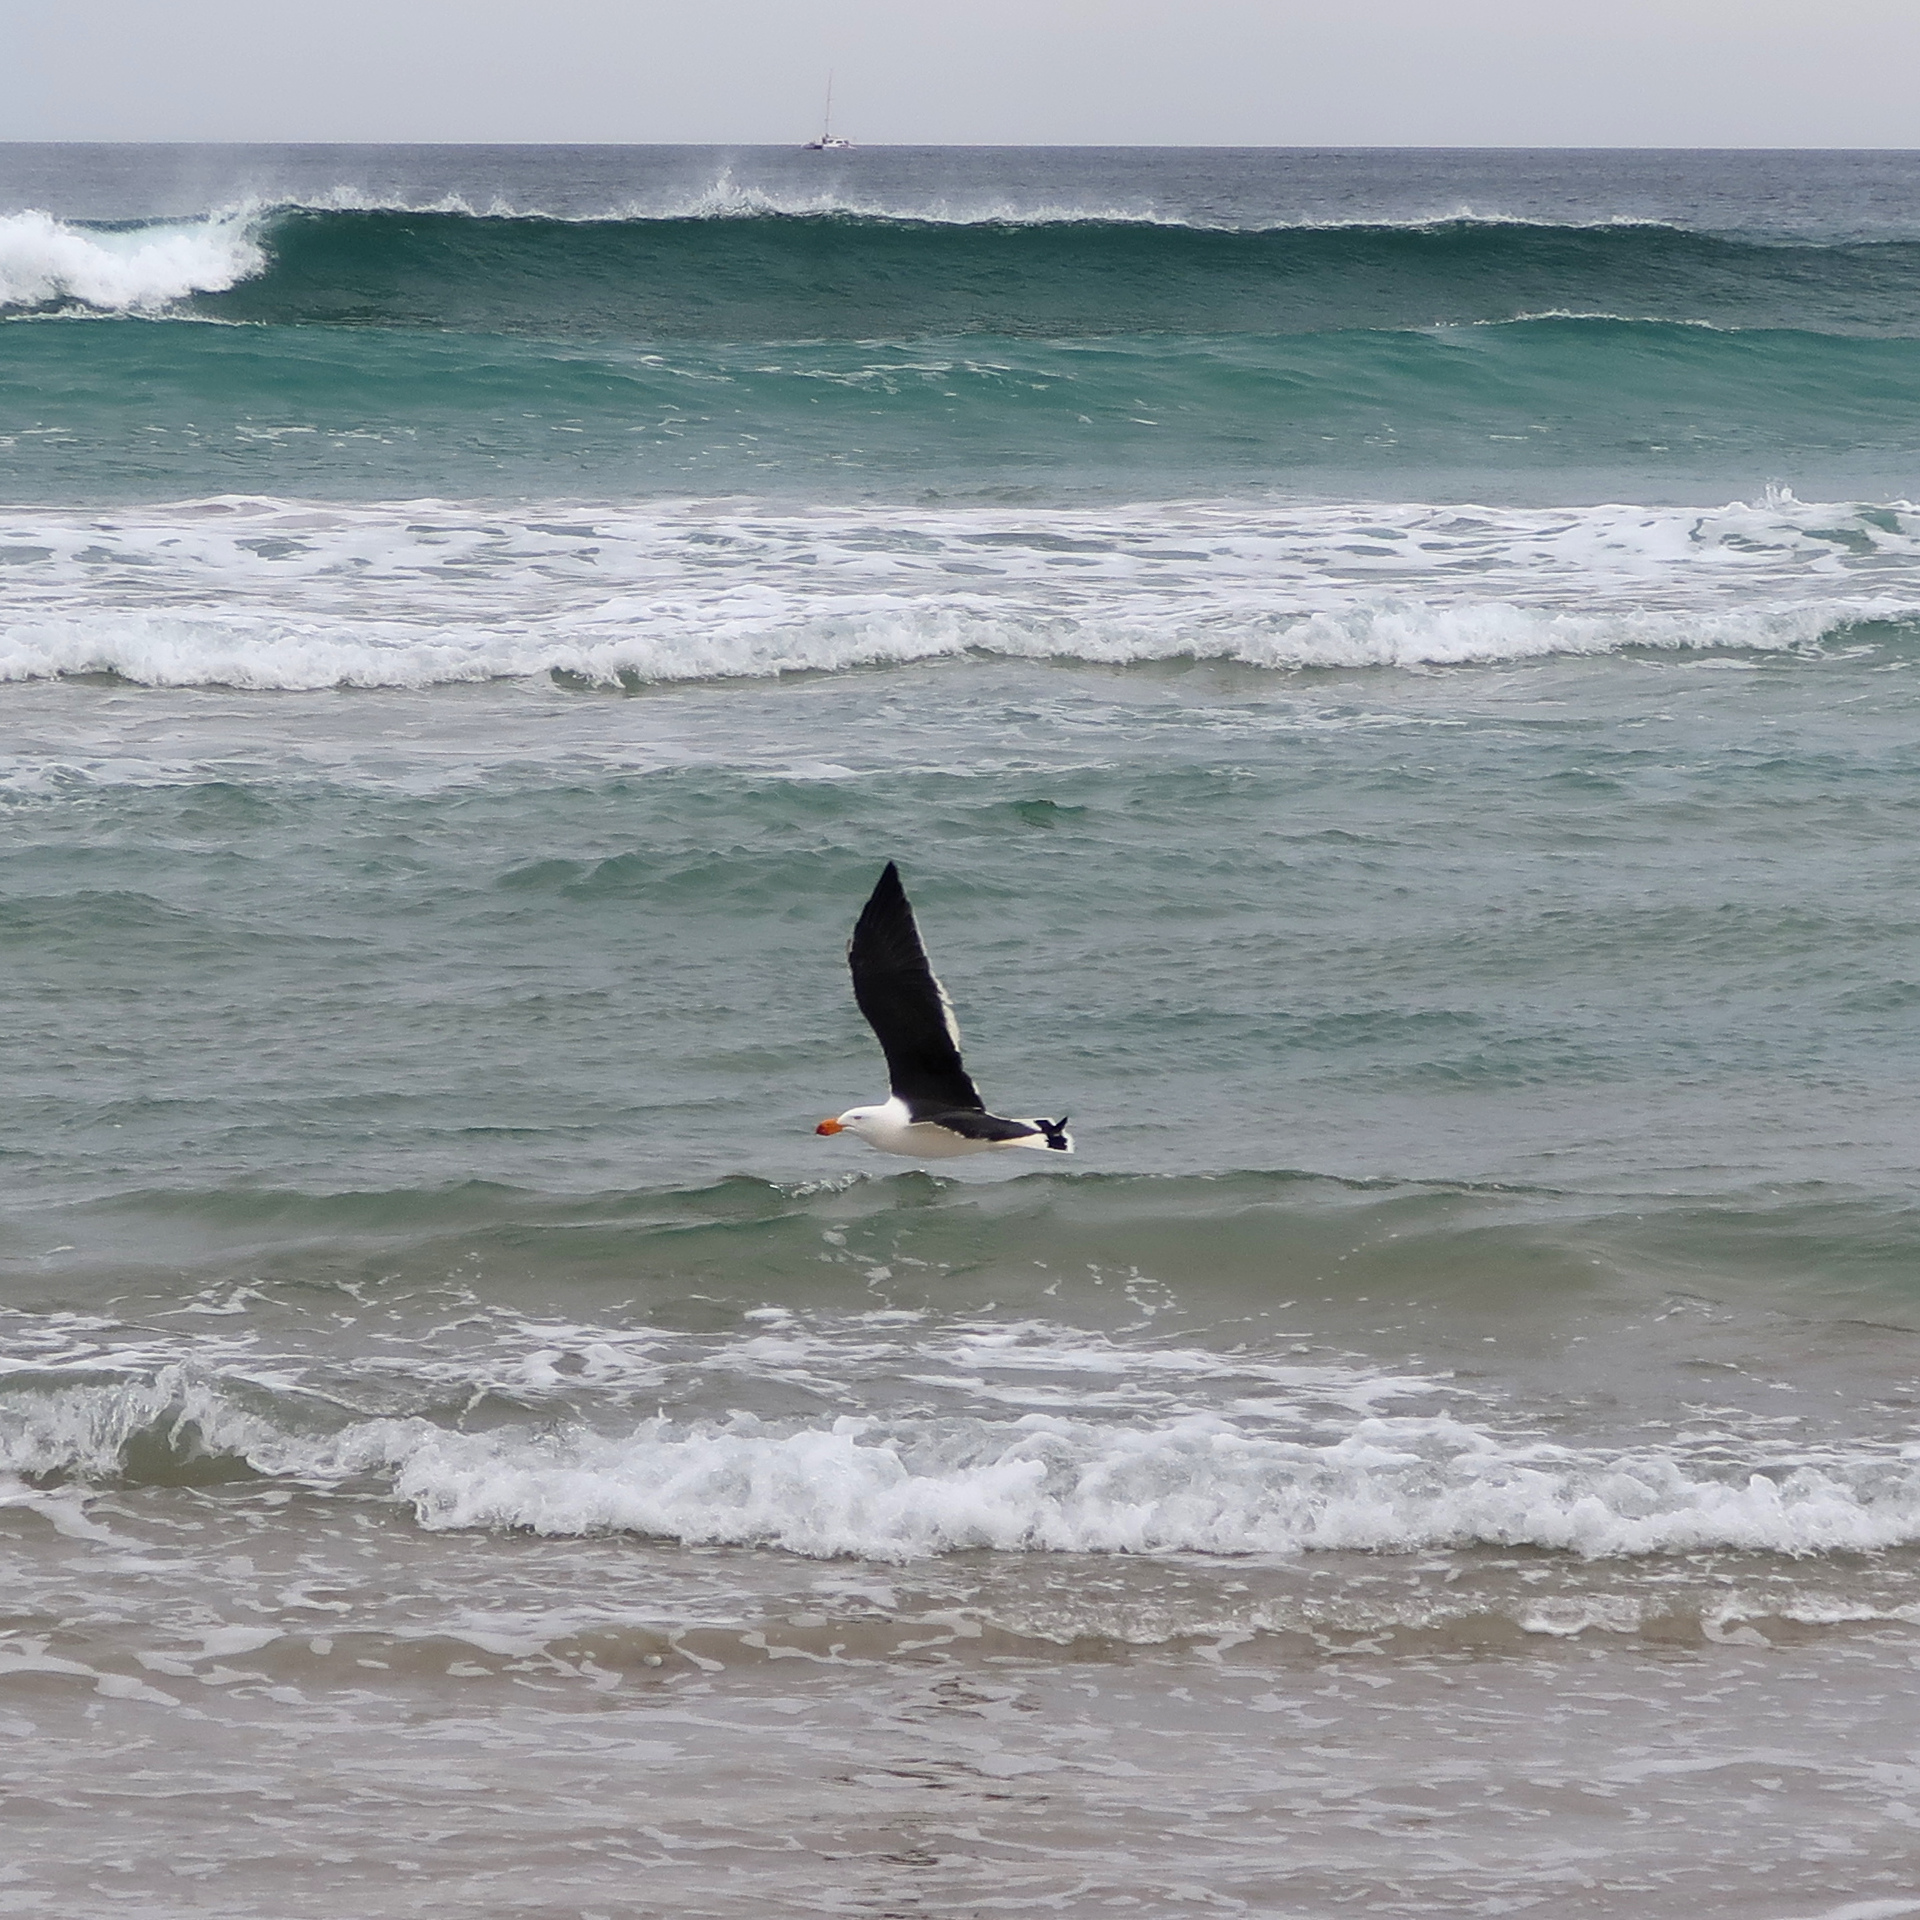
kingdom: Animalia
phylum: Chordata
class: Aves
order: Charadriiformes
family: Laridae
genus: Larus
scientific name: Larus pacificus
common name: Pacific gull
